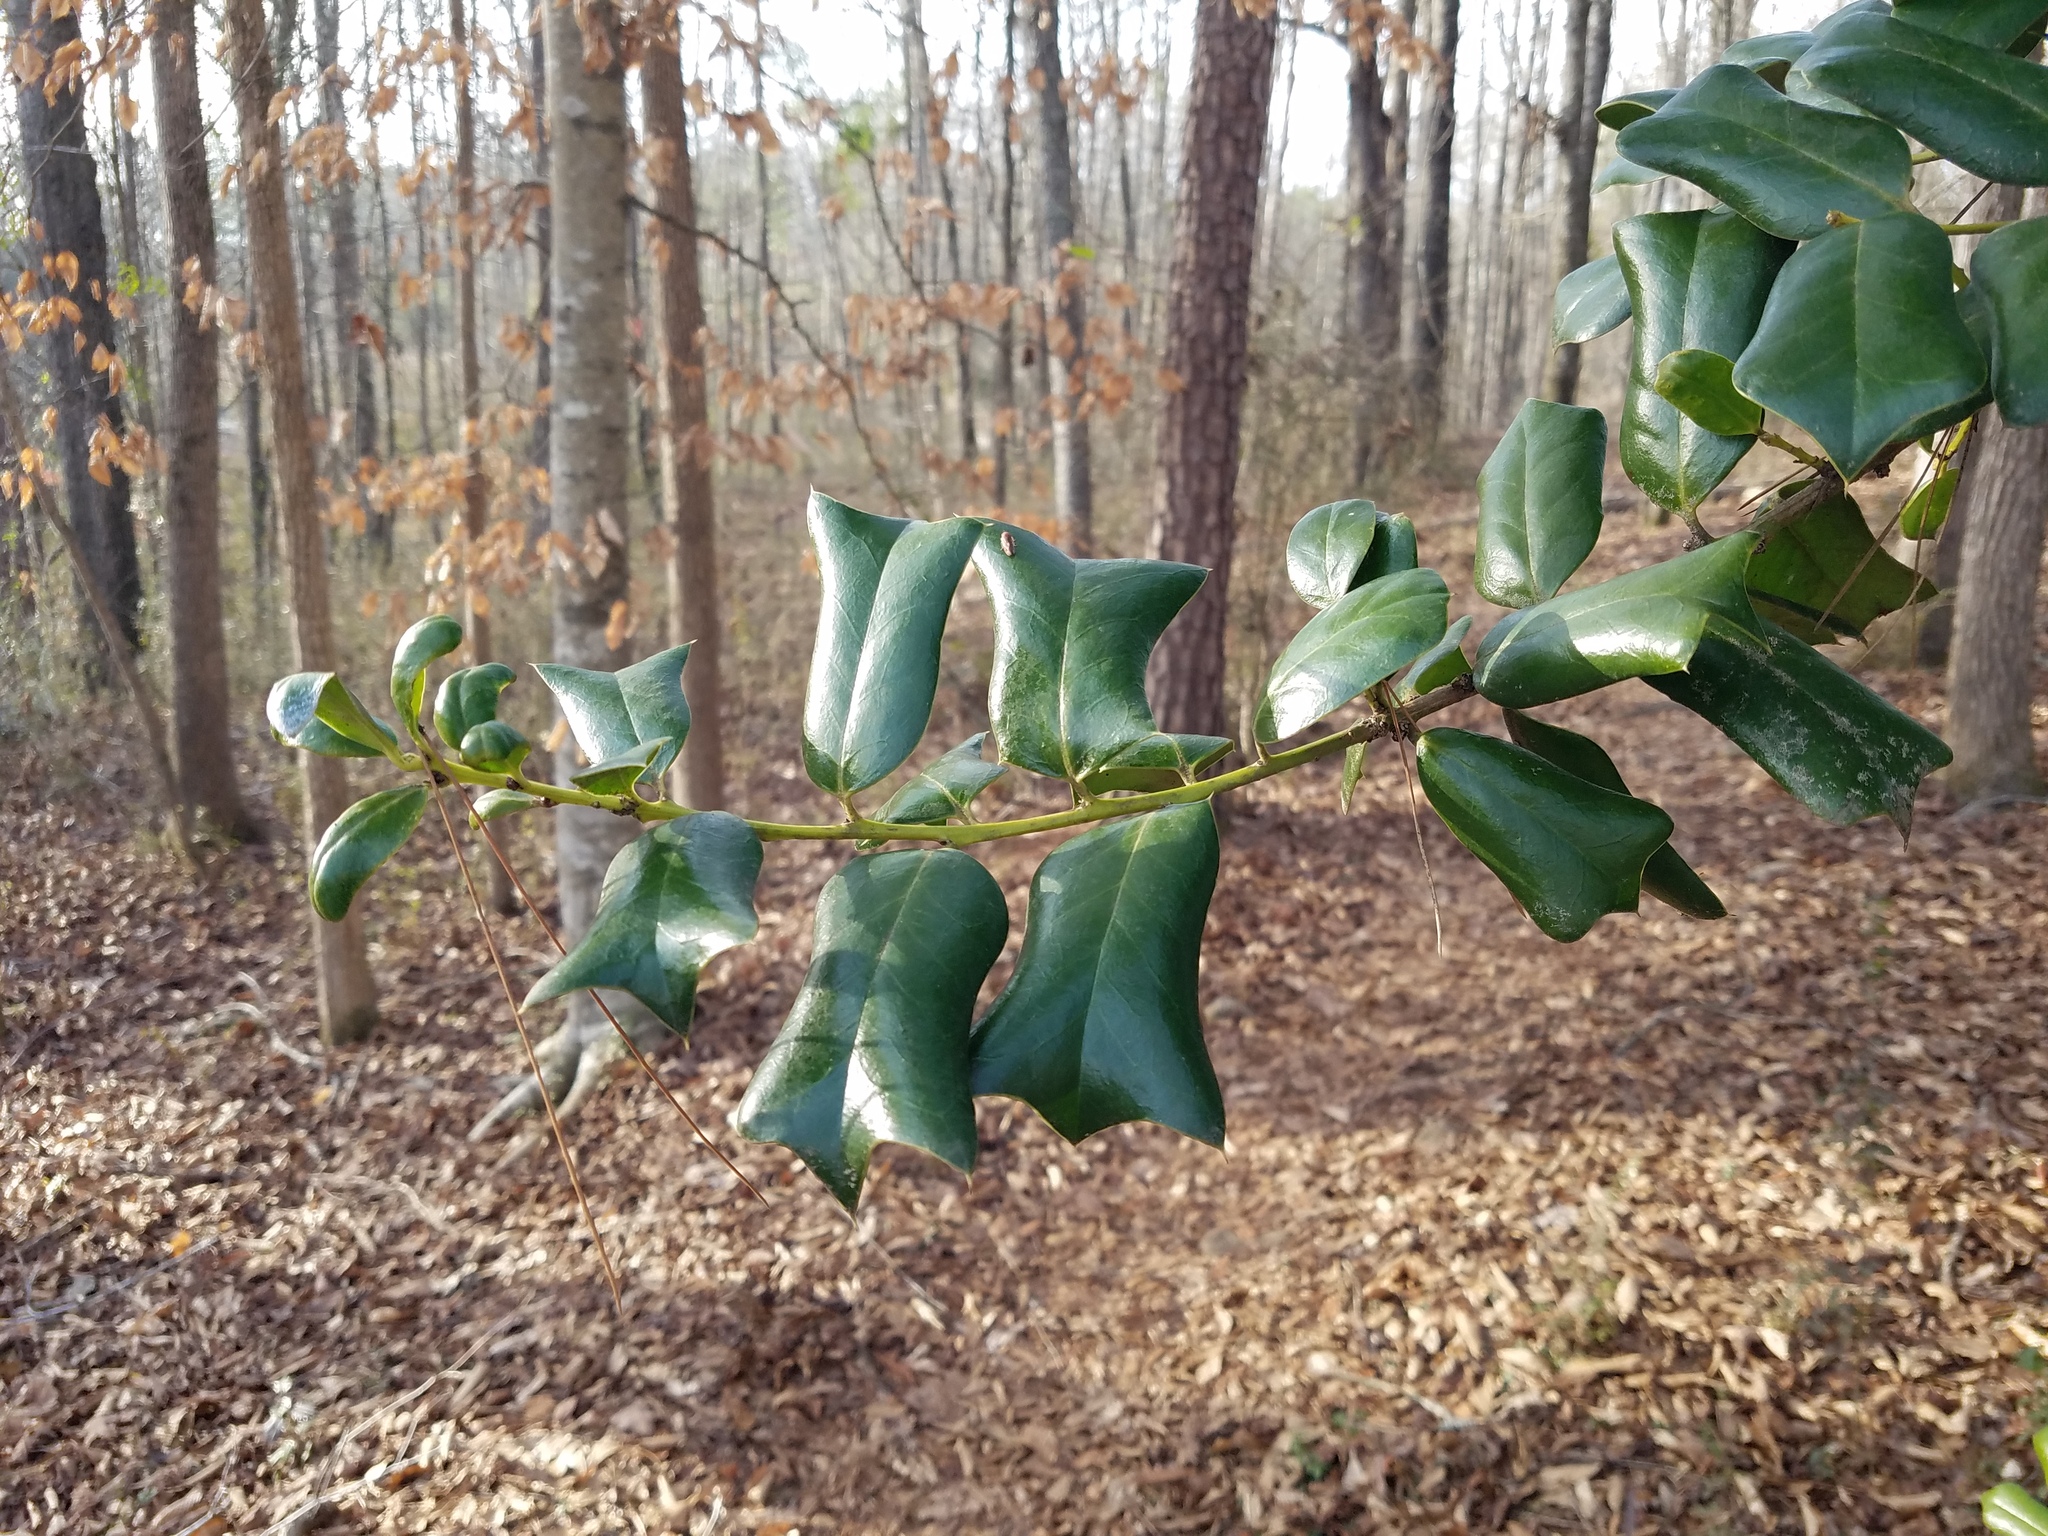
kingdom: Plantae
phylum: Tracheophyta
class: Magnoliopsida
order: Aquifoliales
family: Aquifoliaceae
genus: Ilex
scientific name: Ilex cornuta
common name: Chinese holly
